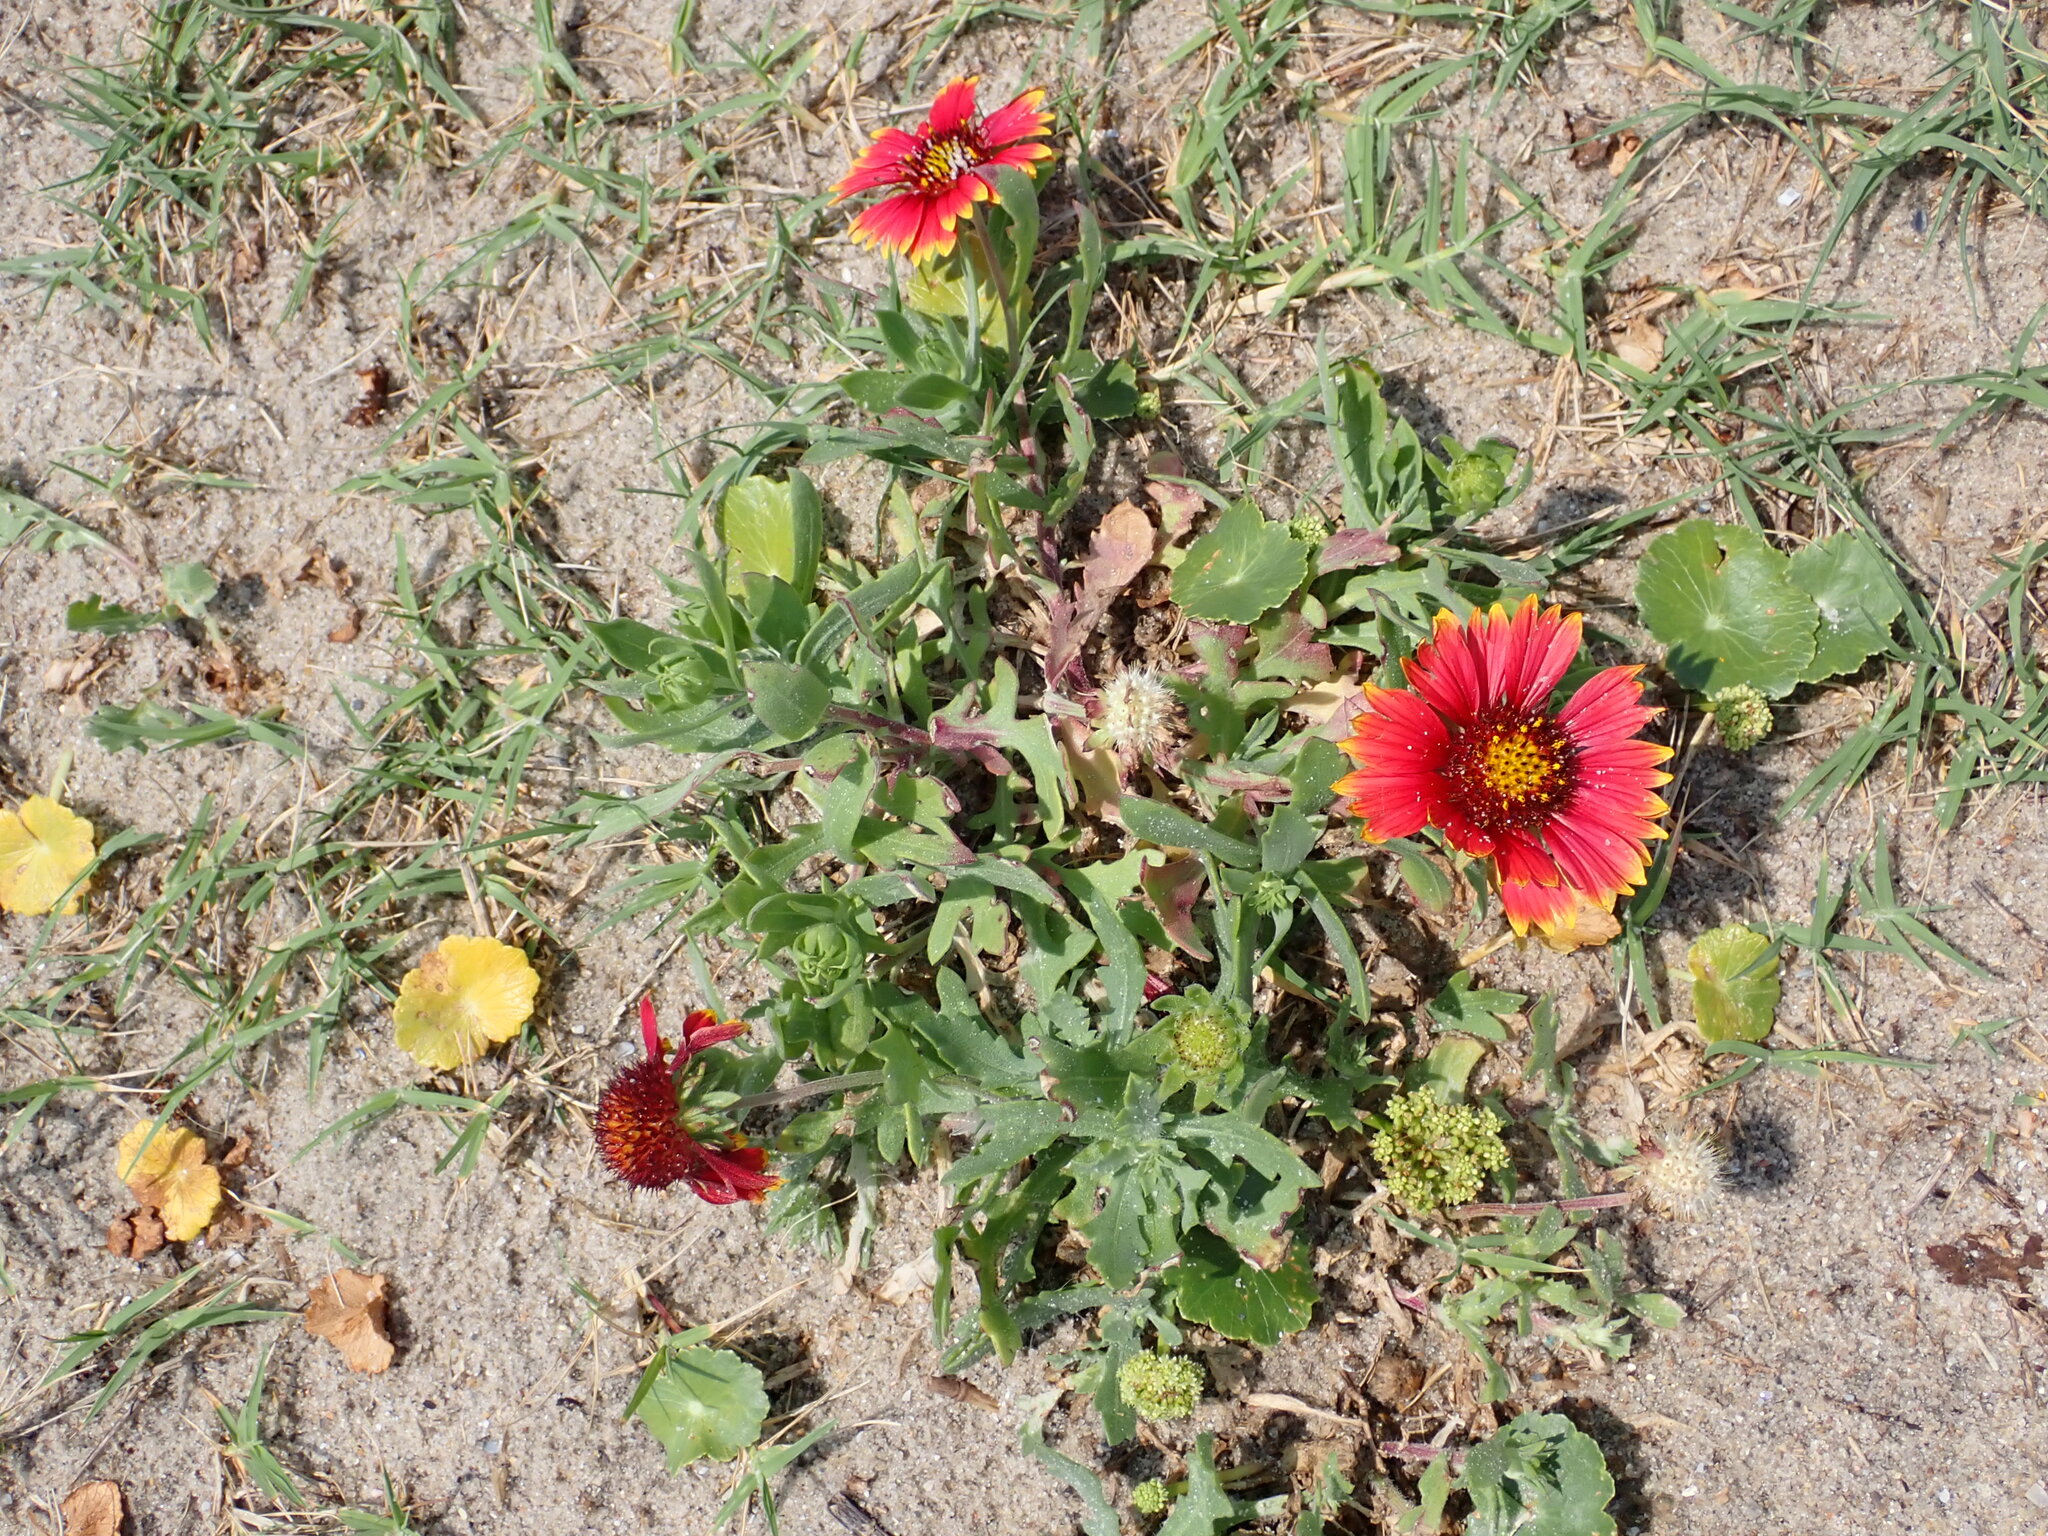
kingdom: Plantae
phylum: Tracheophyta
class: Magnoliopsida
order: Asterales
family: Asteraceae
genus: Gaillardia
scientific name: Gaillardia pulchella
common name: Firewheel
